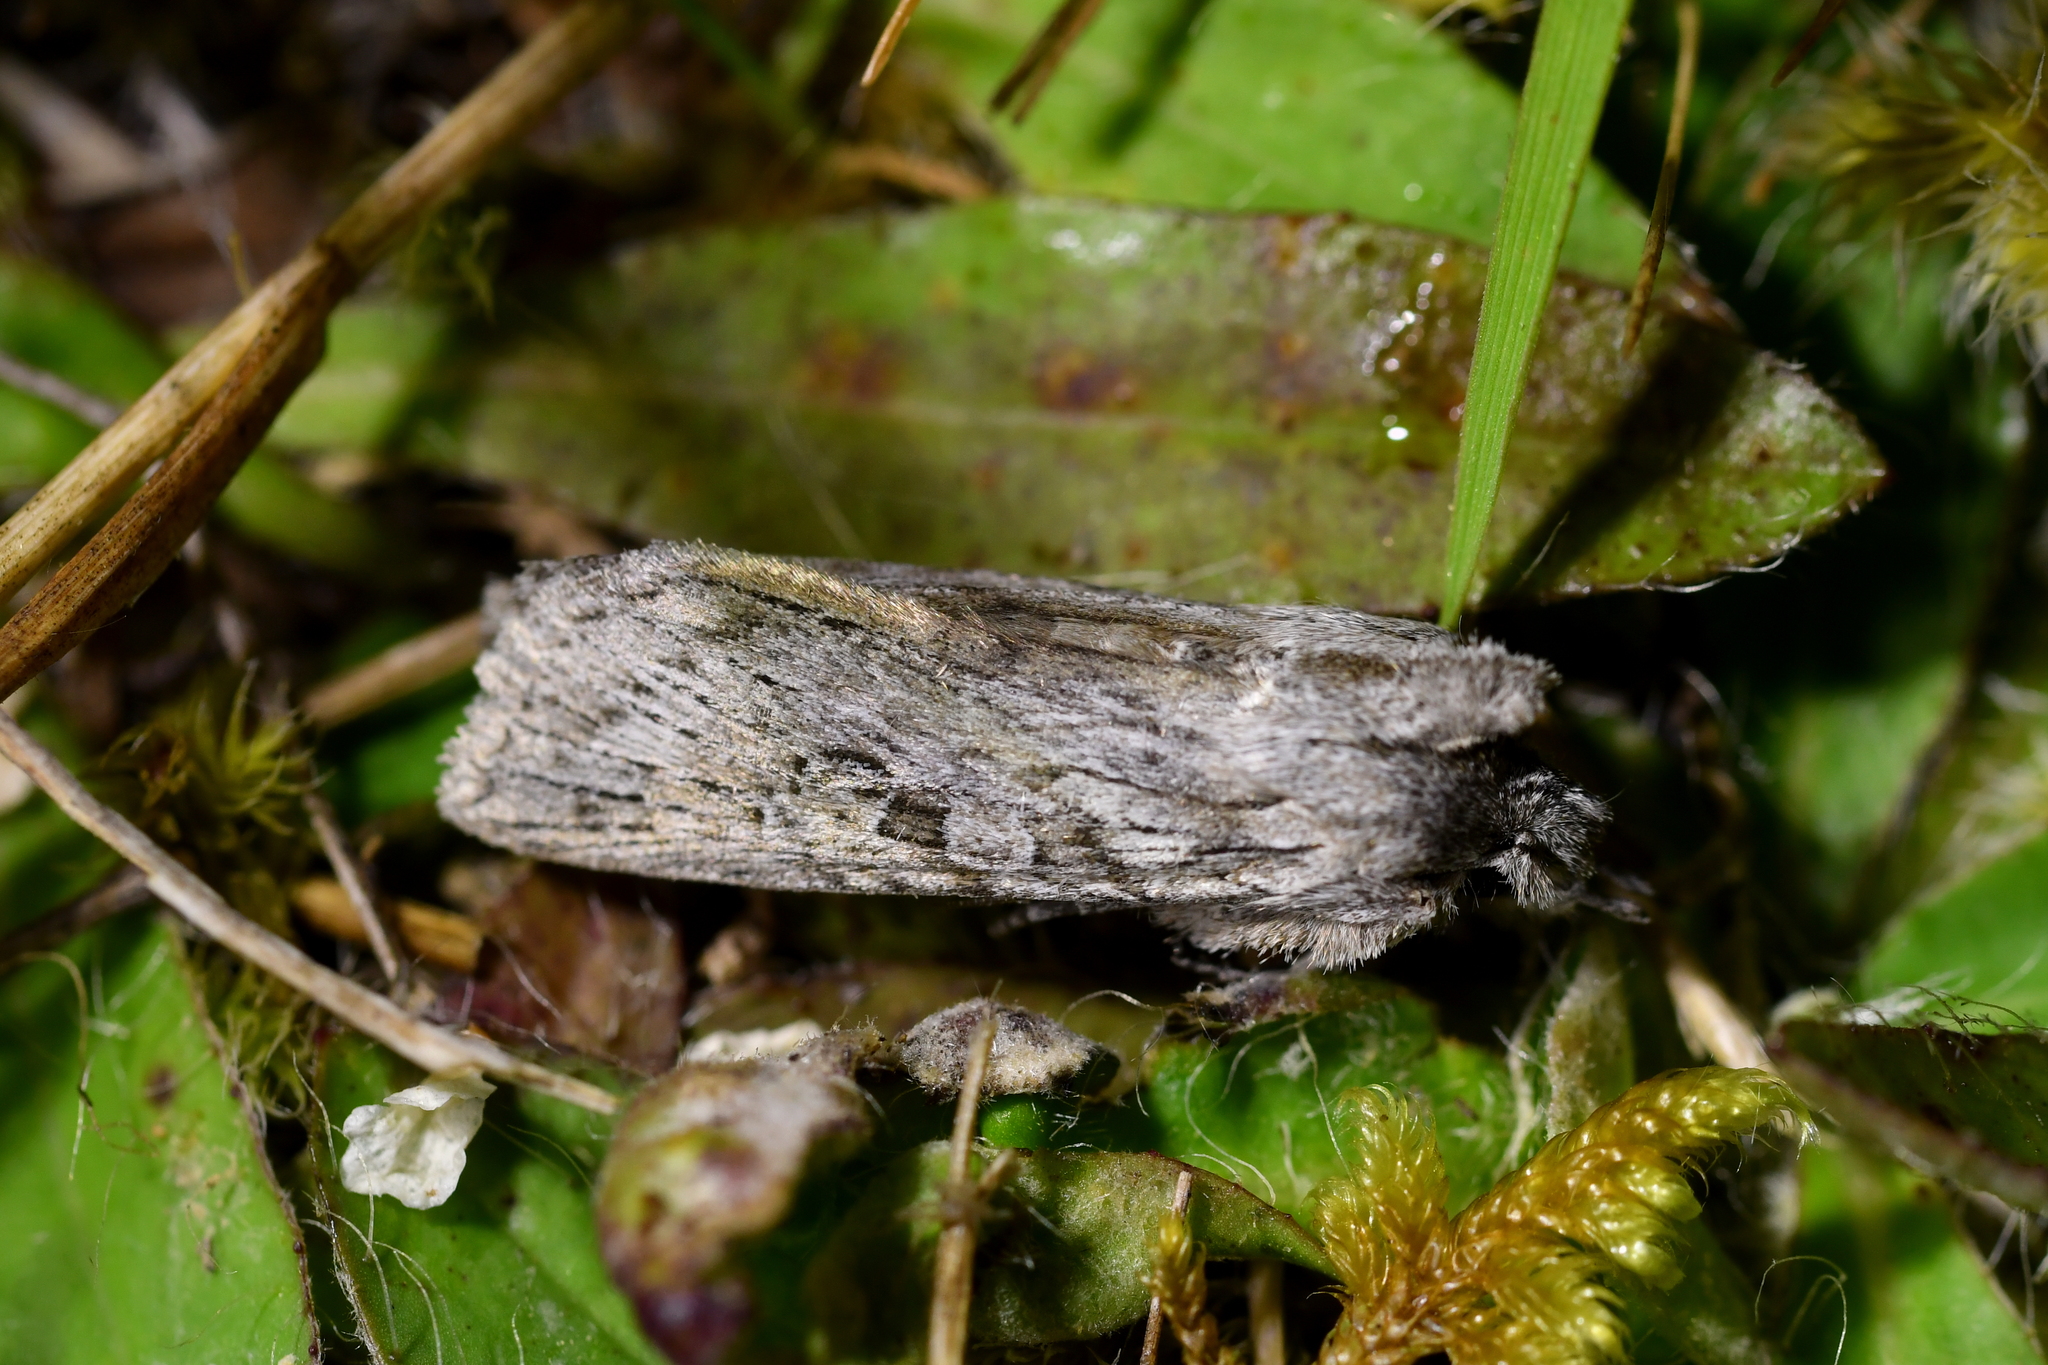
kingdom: Animalia
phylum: Arthropoda
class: Insecta
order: Lepidoptera
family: Noctuidae
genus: Physetica
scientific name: Physetica phricias
